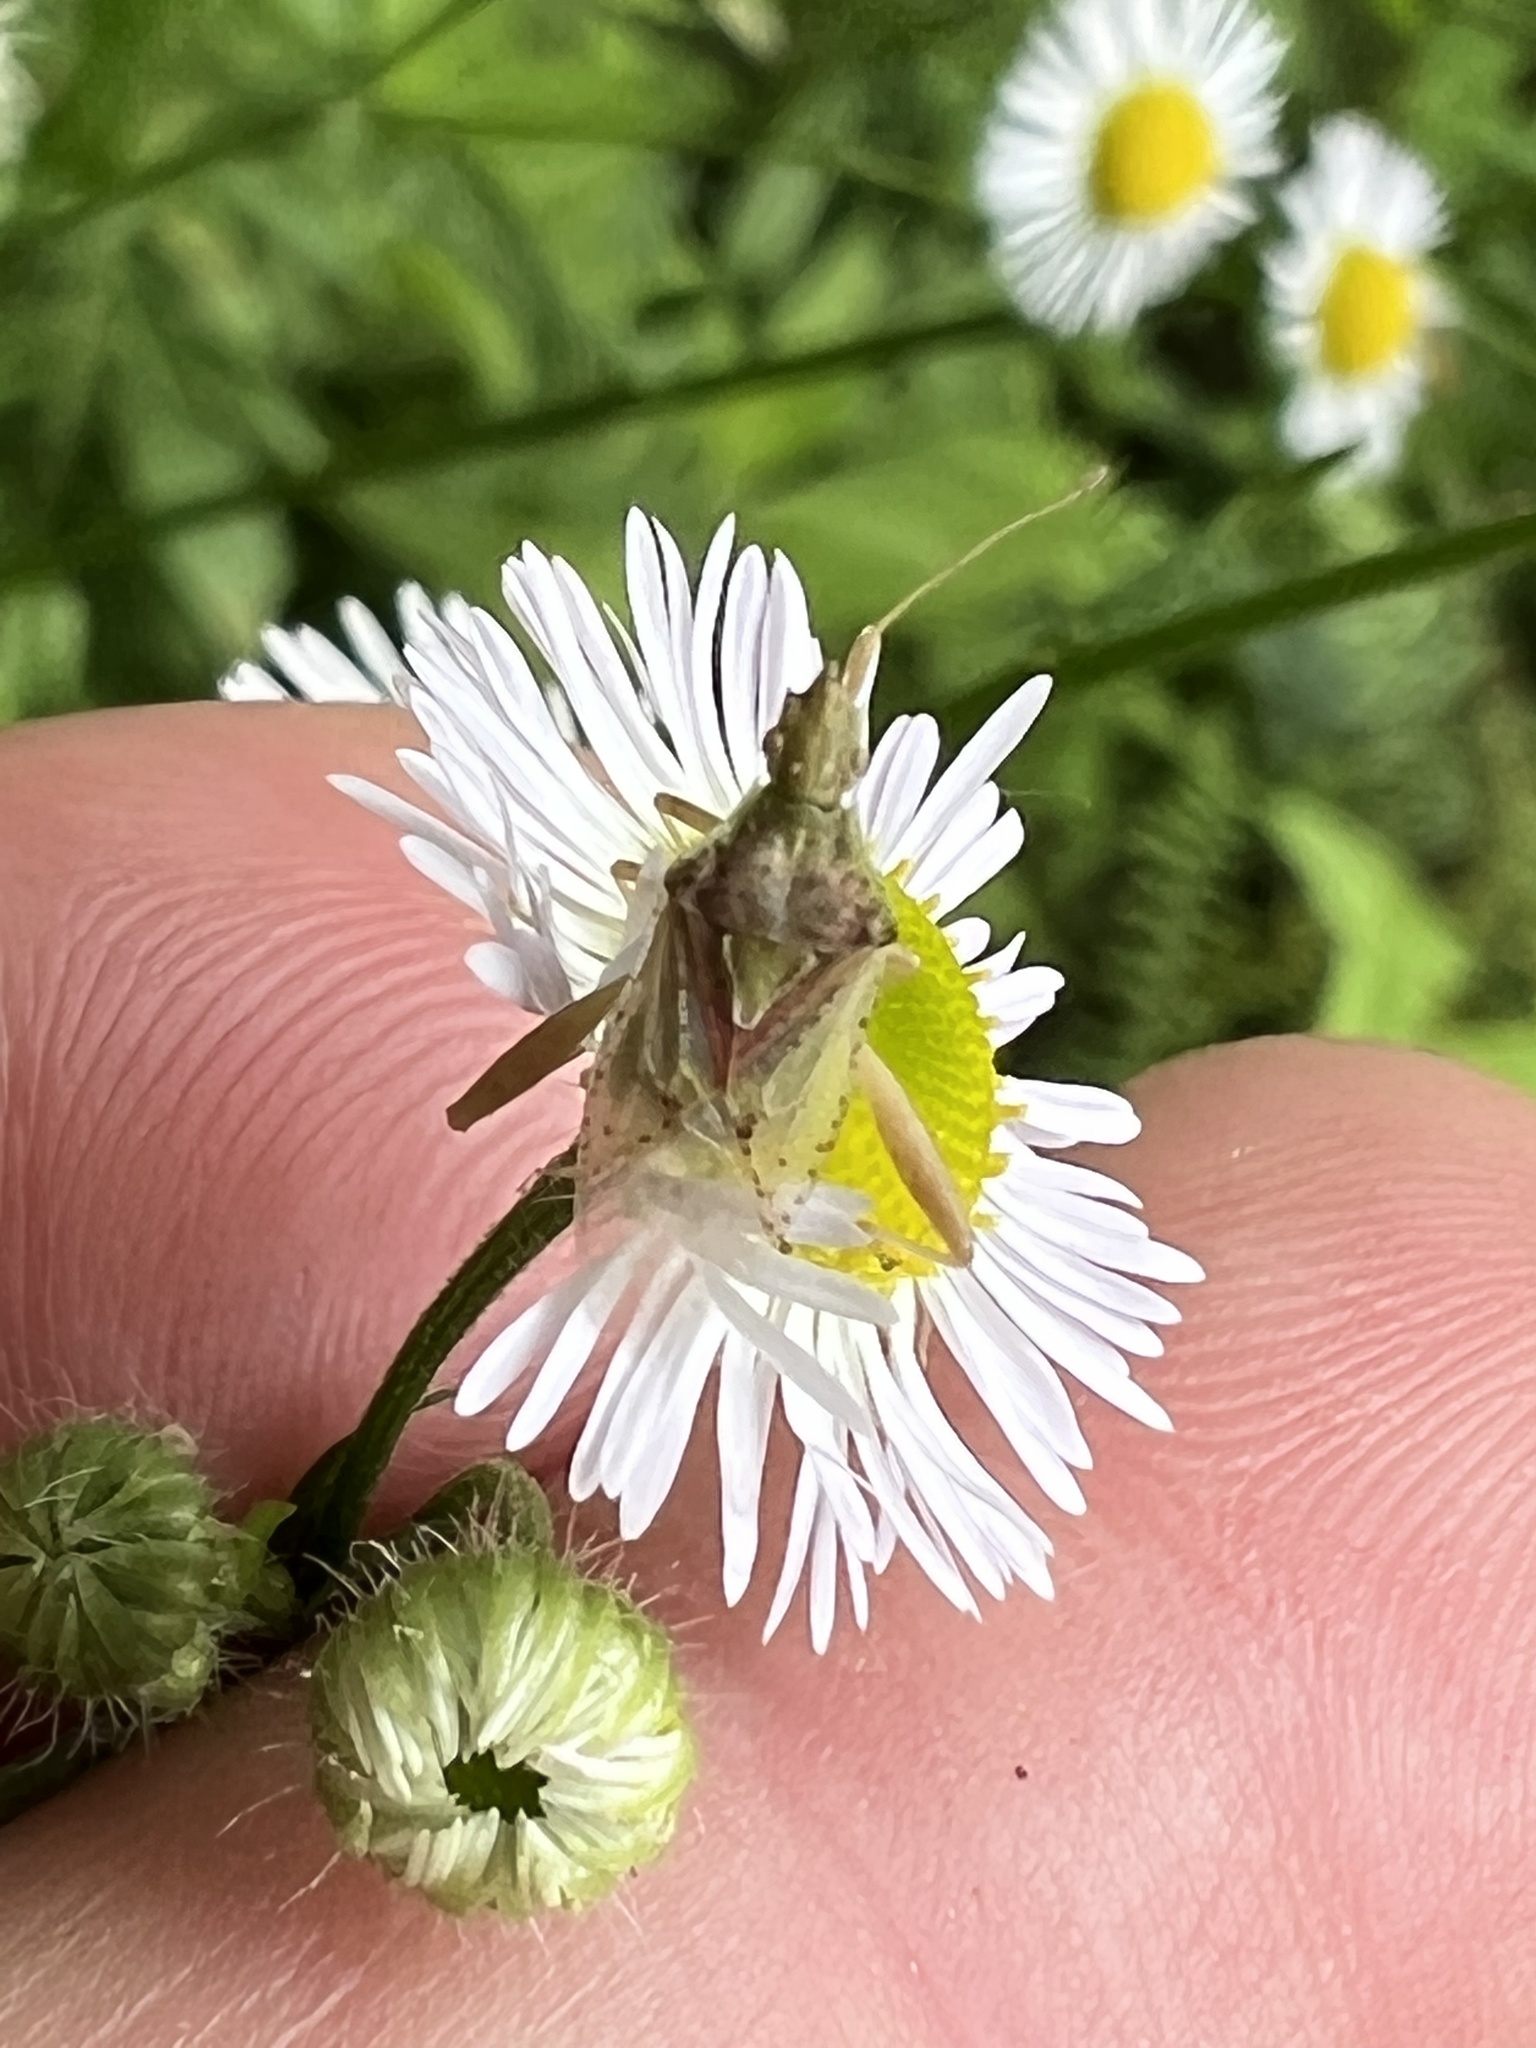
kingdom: Animalia
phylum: Arthropoda
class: Insecta
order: Hemiptera
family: Rhopalidae
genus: Harmostes
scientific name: Harmostes reflexulus
